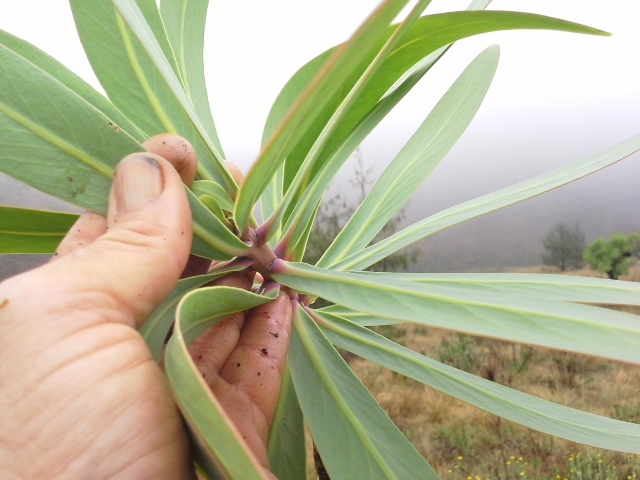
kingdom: Plantae
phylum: Tracheophyta
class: Magnoliopsida
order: Proteales
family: Proteaceae
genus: Protea
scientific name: Protea caffra
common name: Common sugarbush
